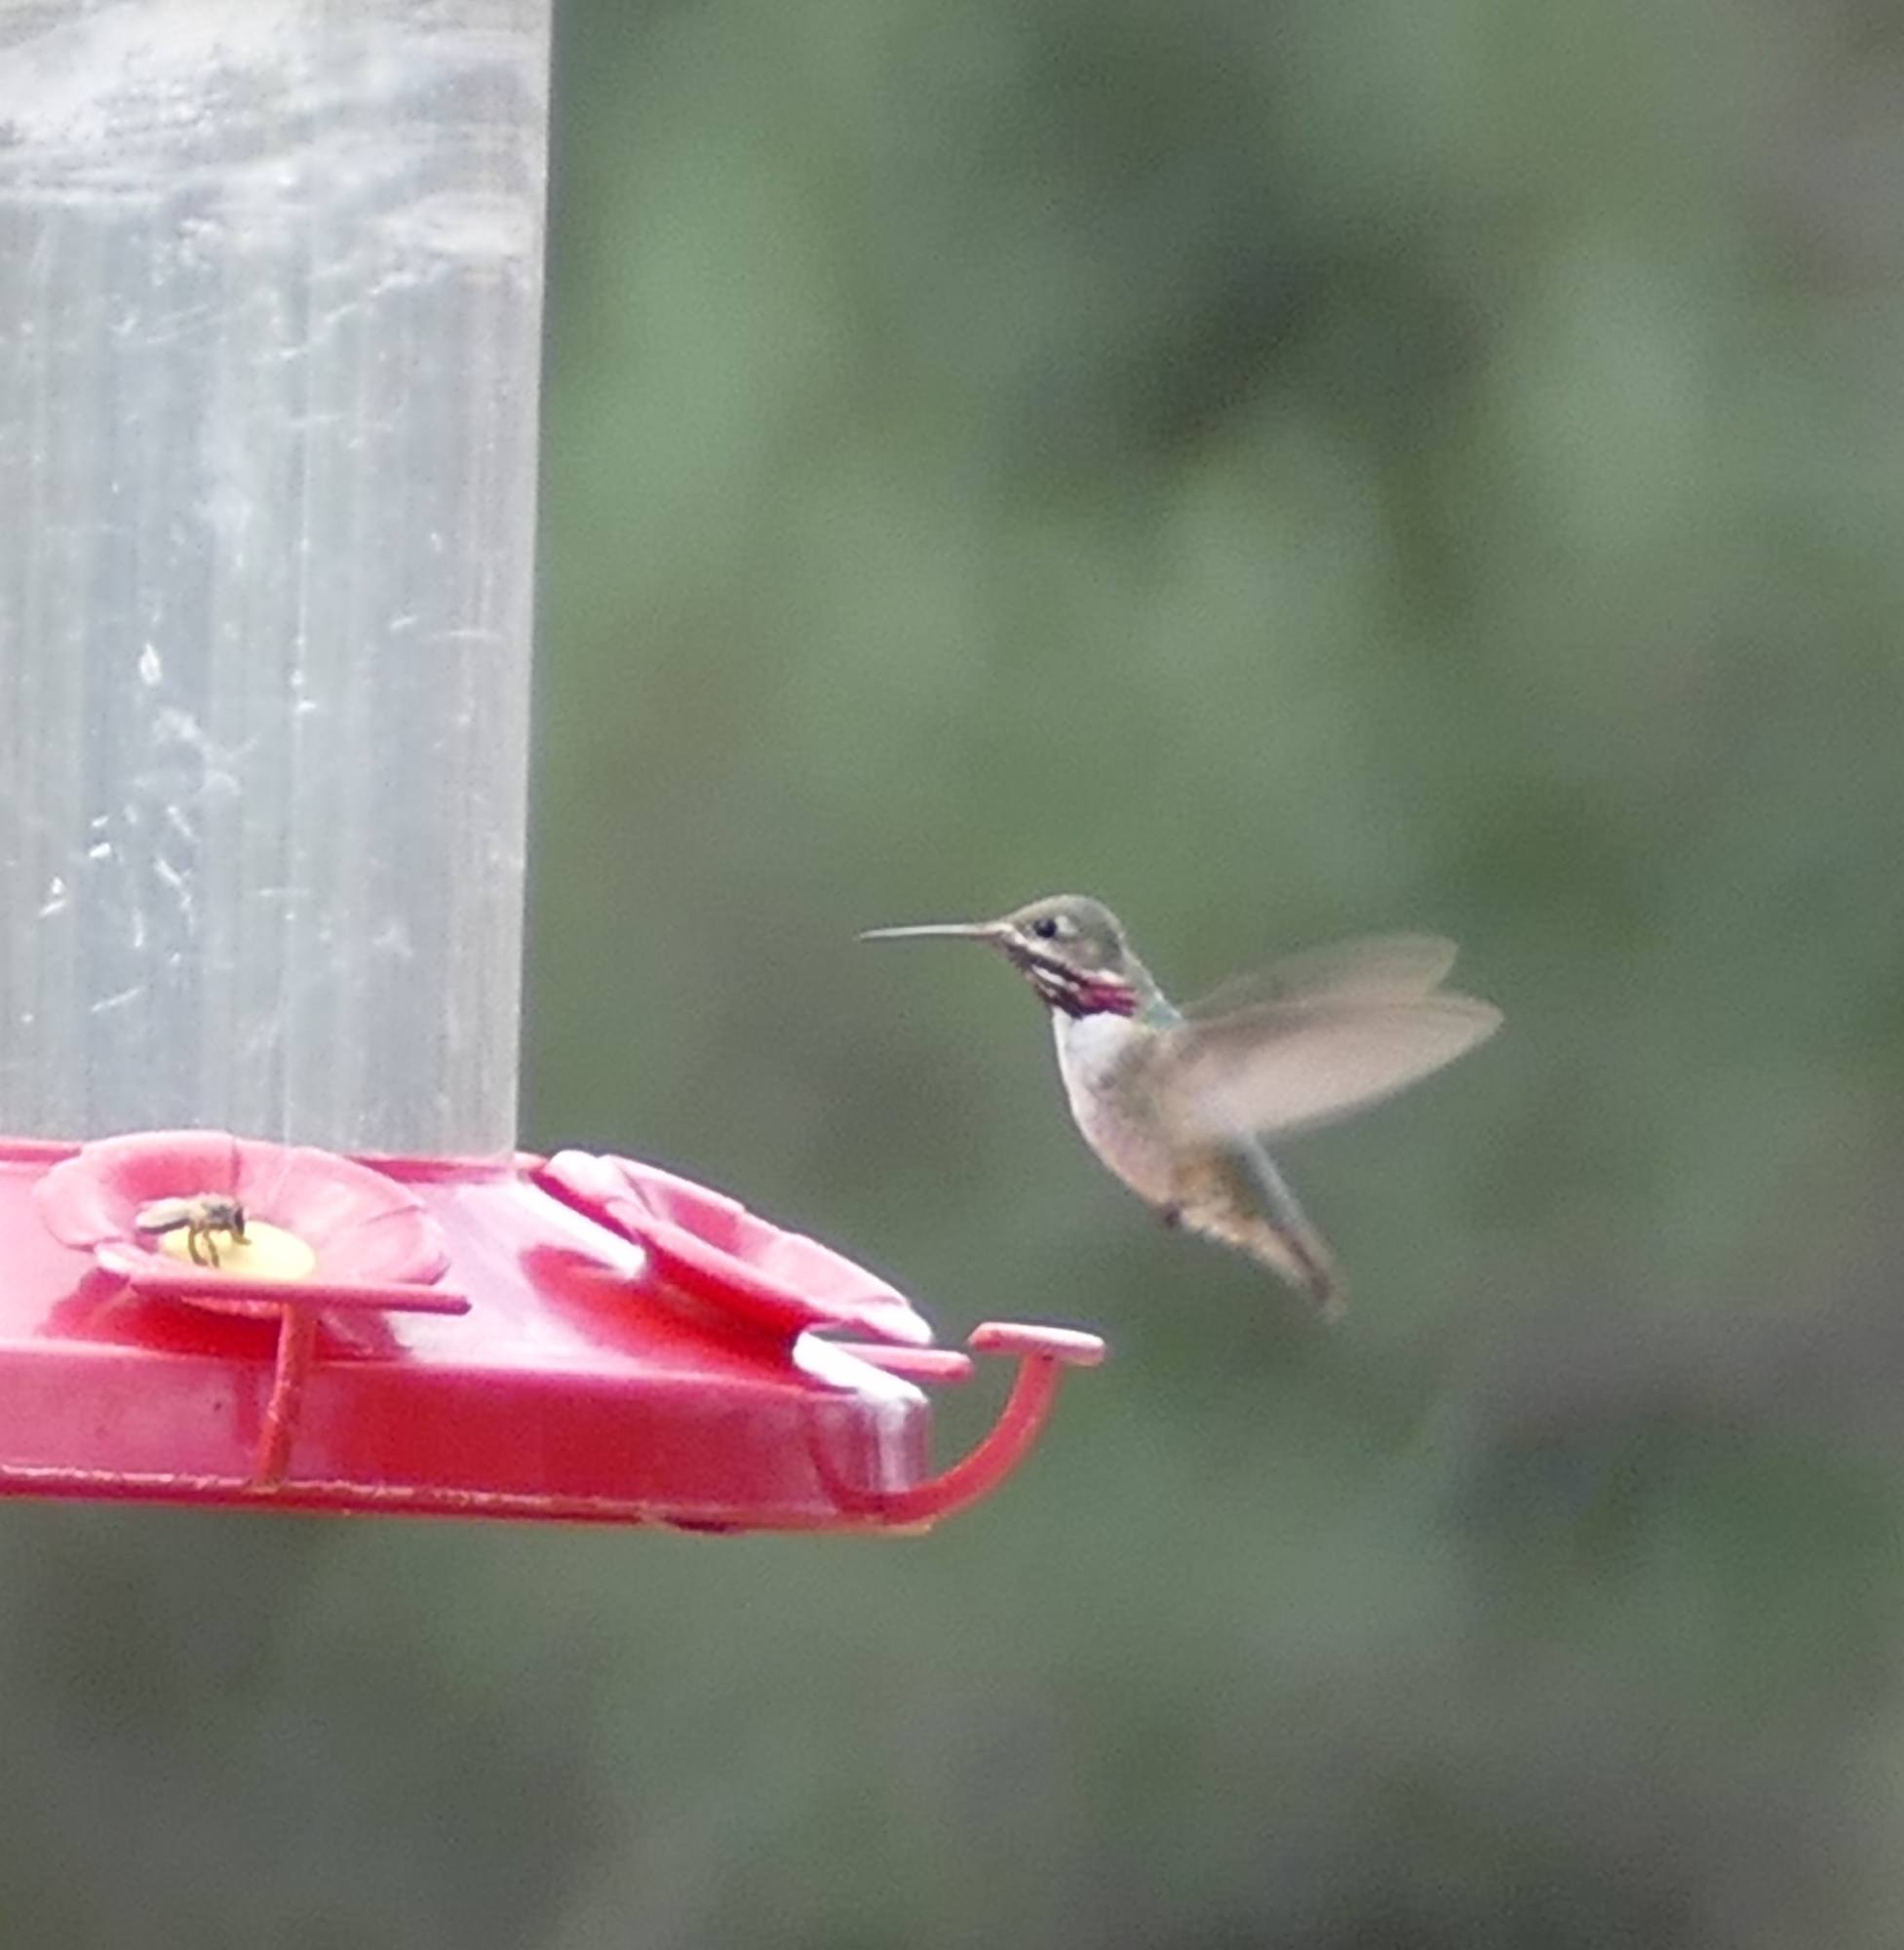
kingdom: Animalia
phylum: Chordata
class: Aves
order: Apodiformes
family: Trochilidae
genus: Selasphorus
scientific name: Selasphorus calliope
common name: Calliope hummingbird
